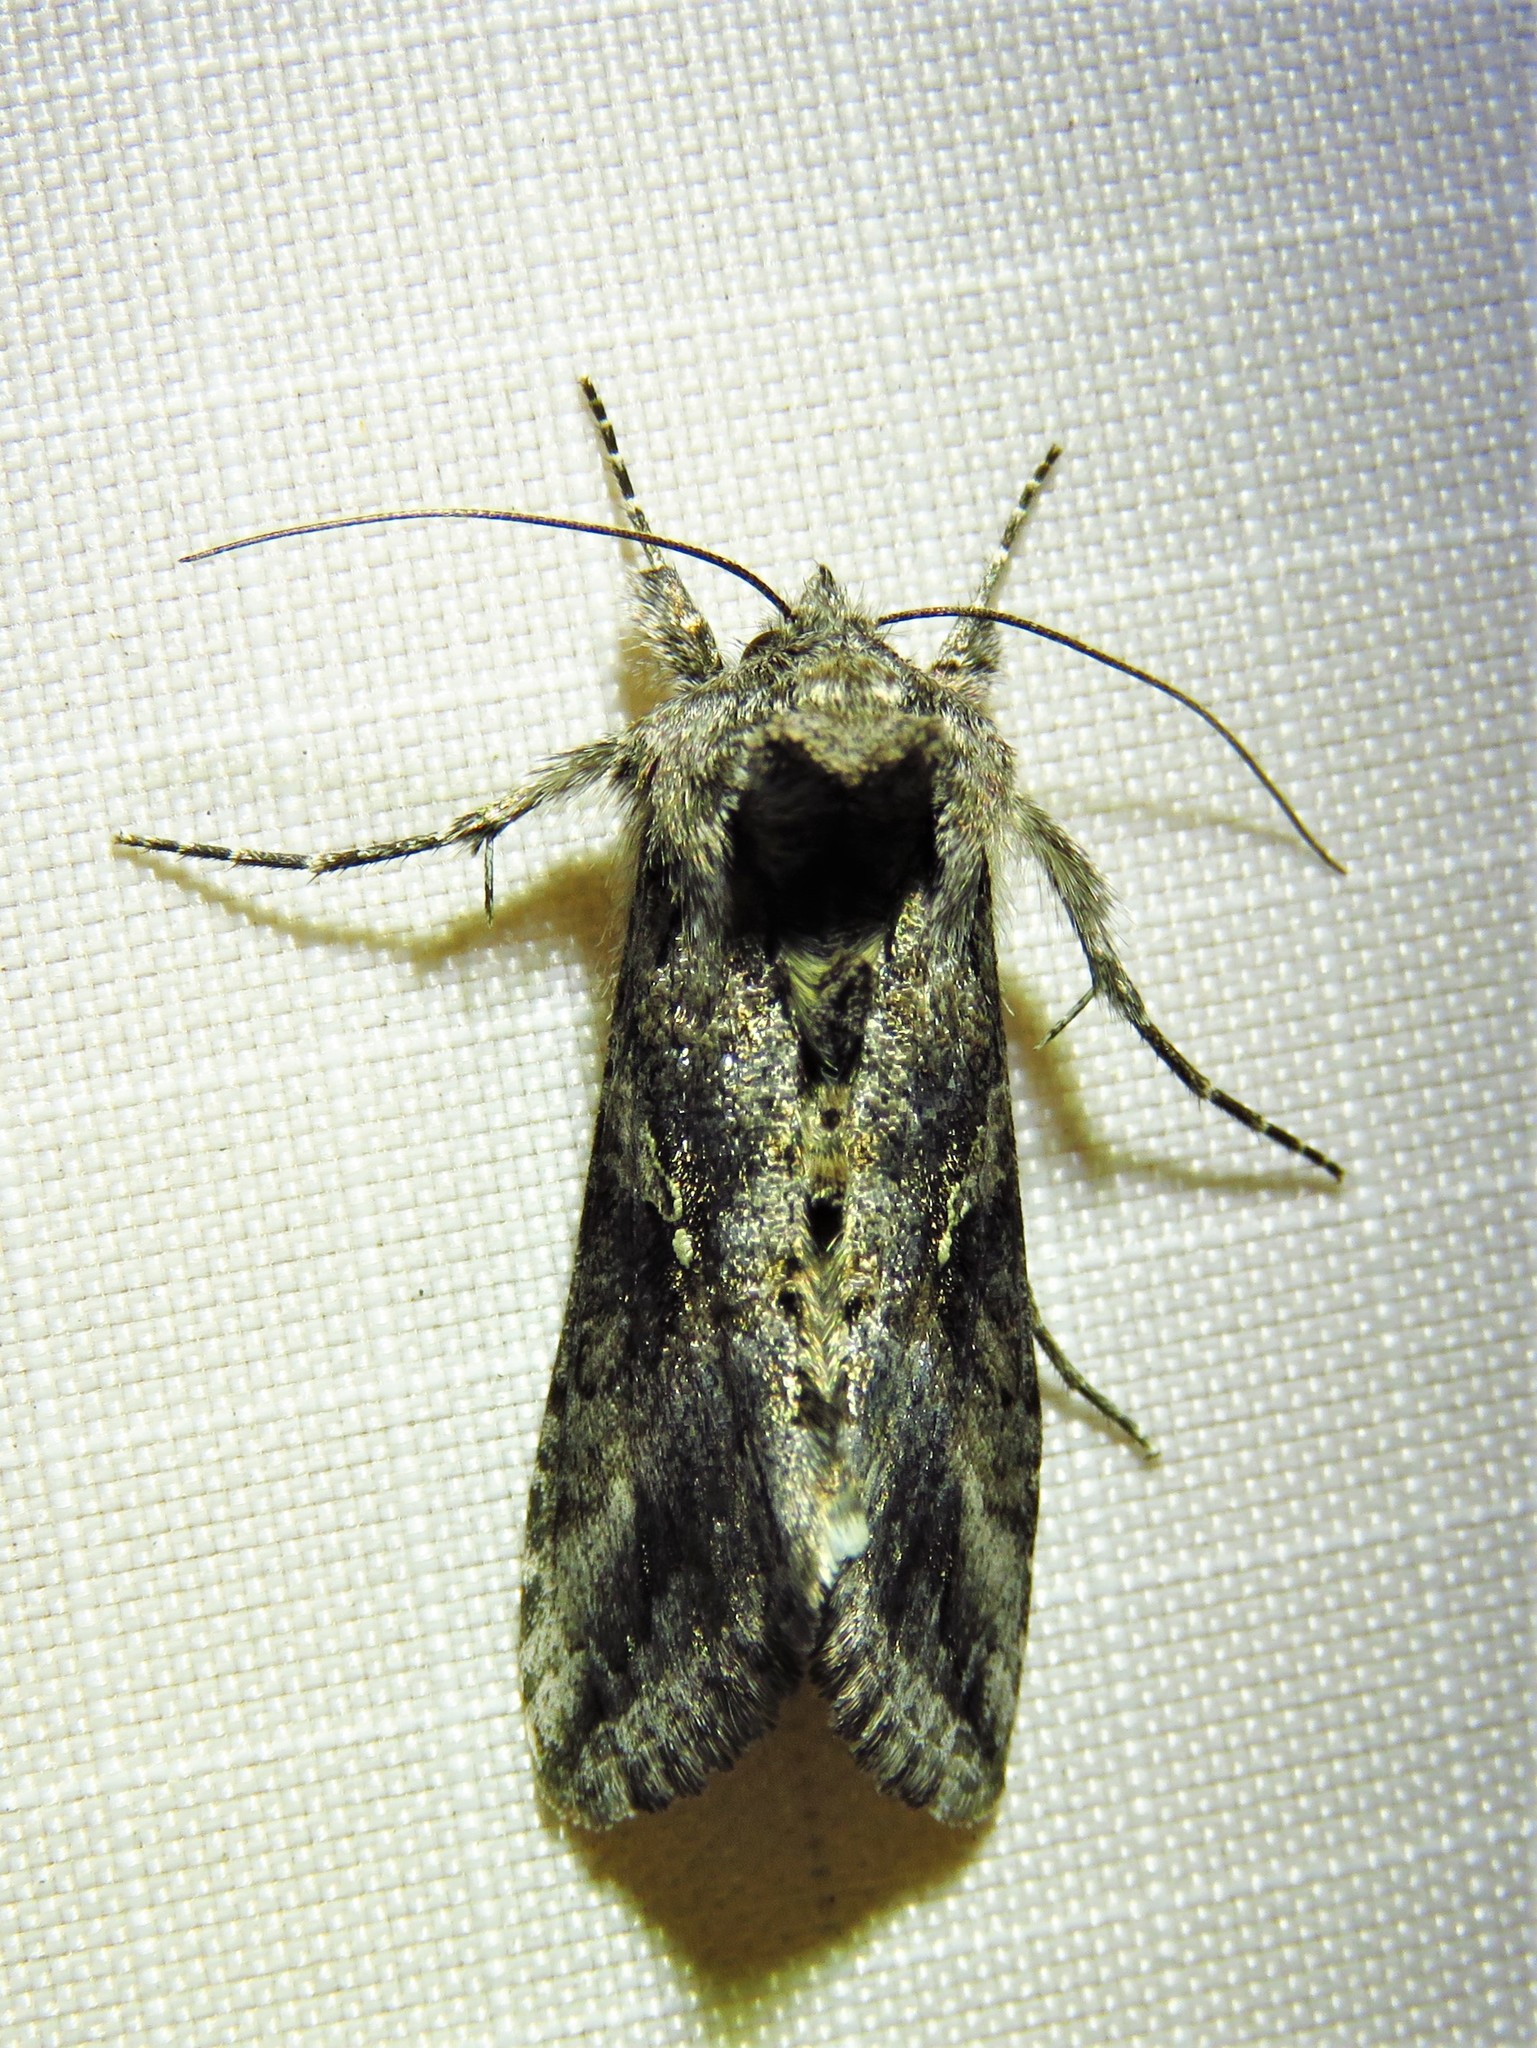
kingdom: Animalia
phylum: Arthropoda
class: Insecta
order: Lepidoptera
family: Noctuidae
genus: Rachiplusia
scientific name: Rachiplusia ou
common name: Gray looper moth
